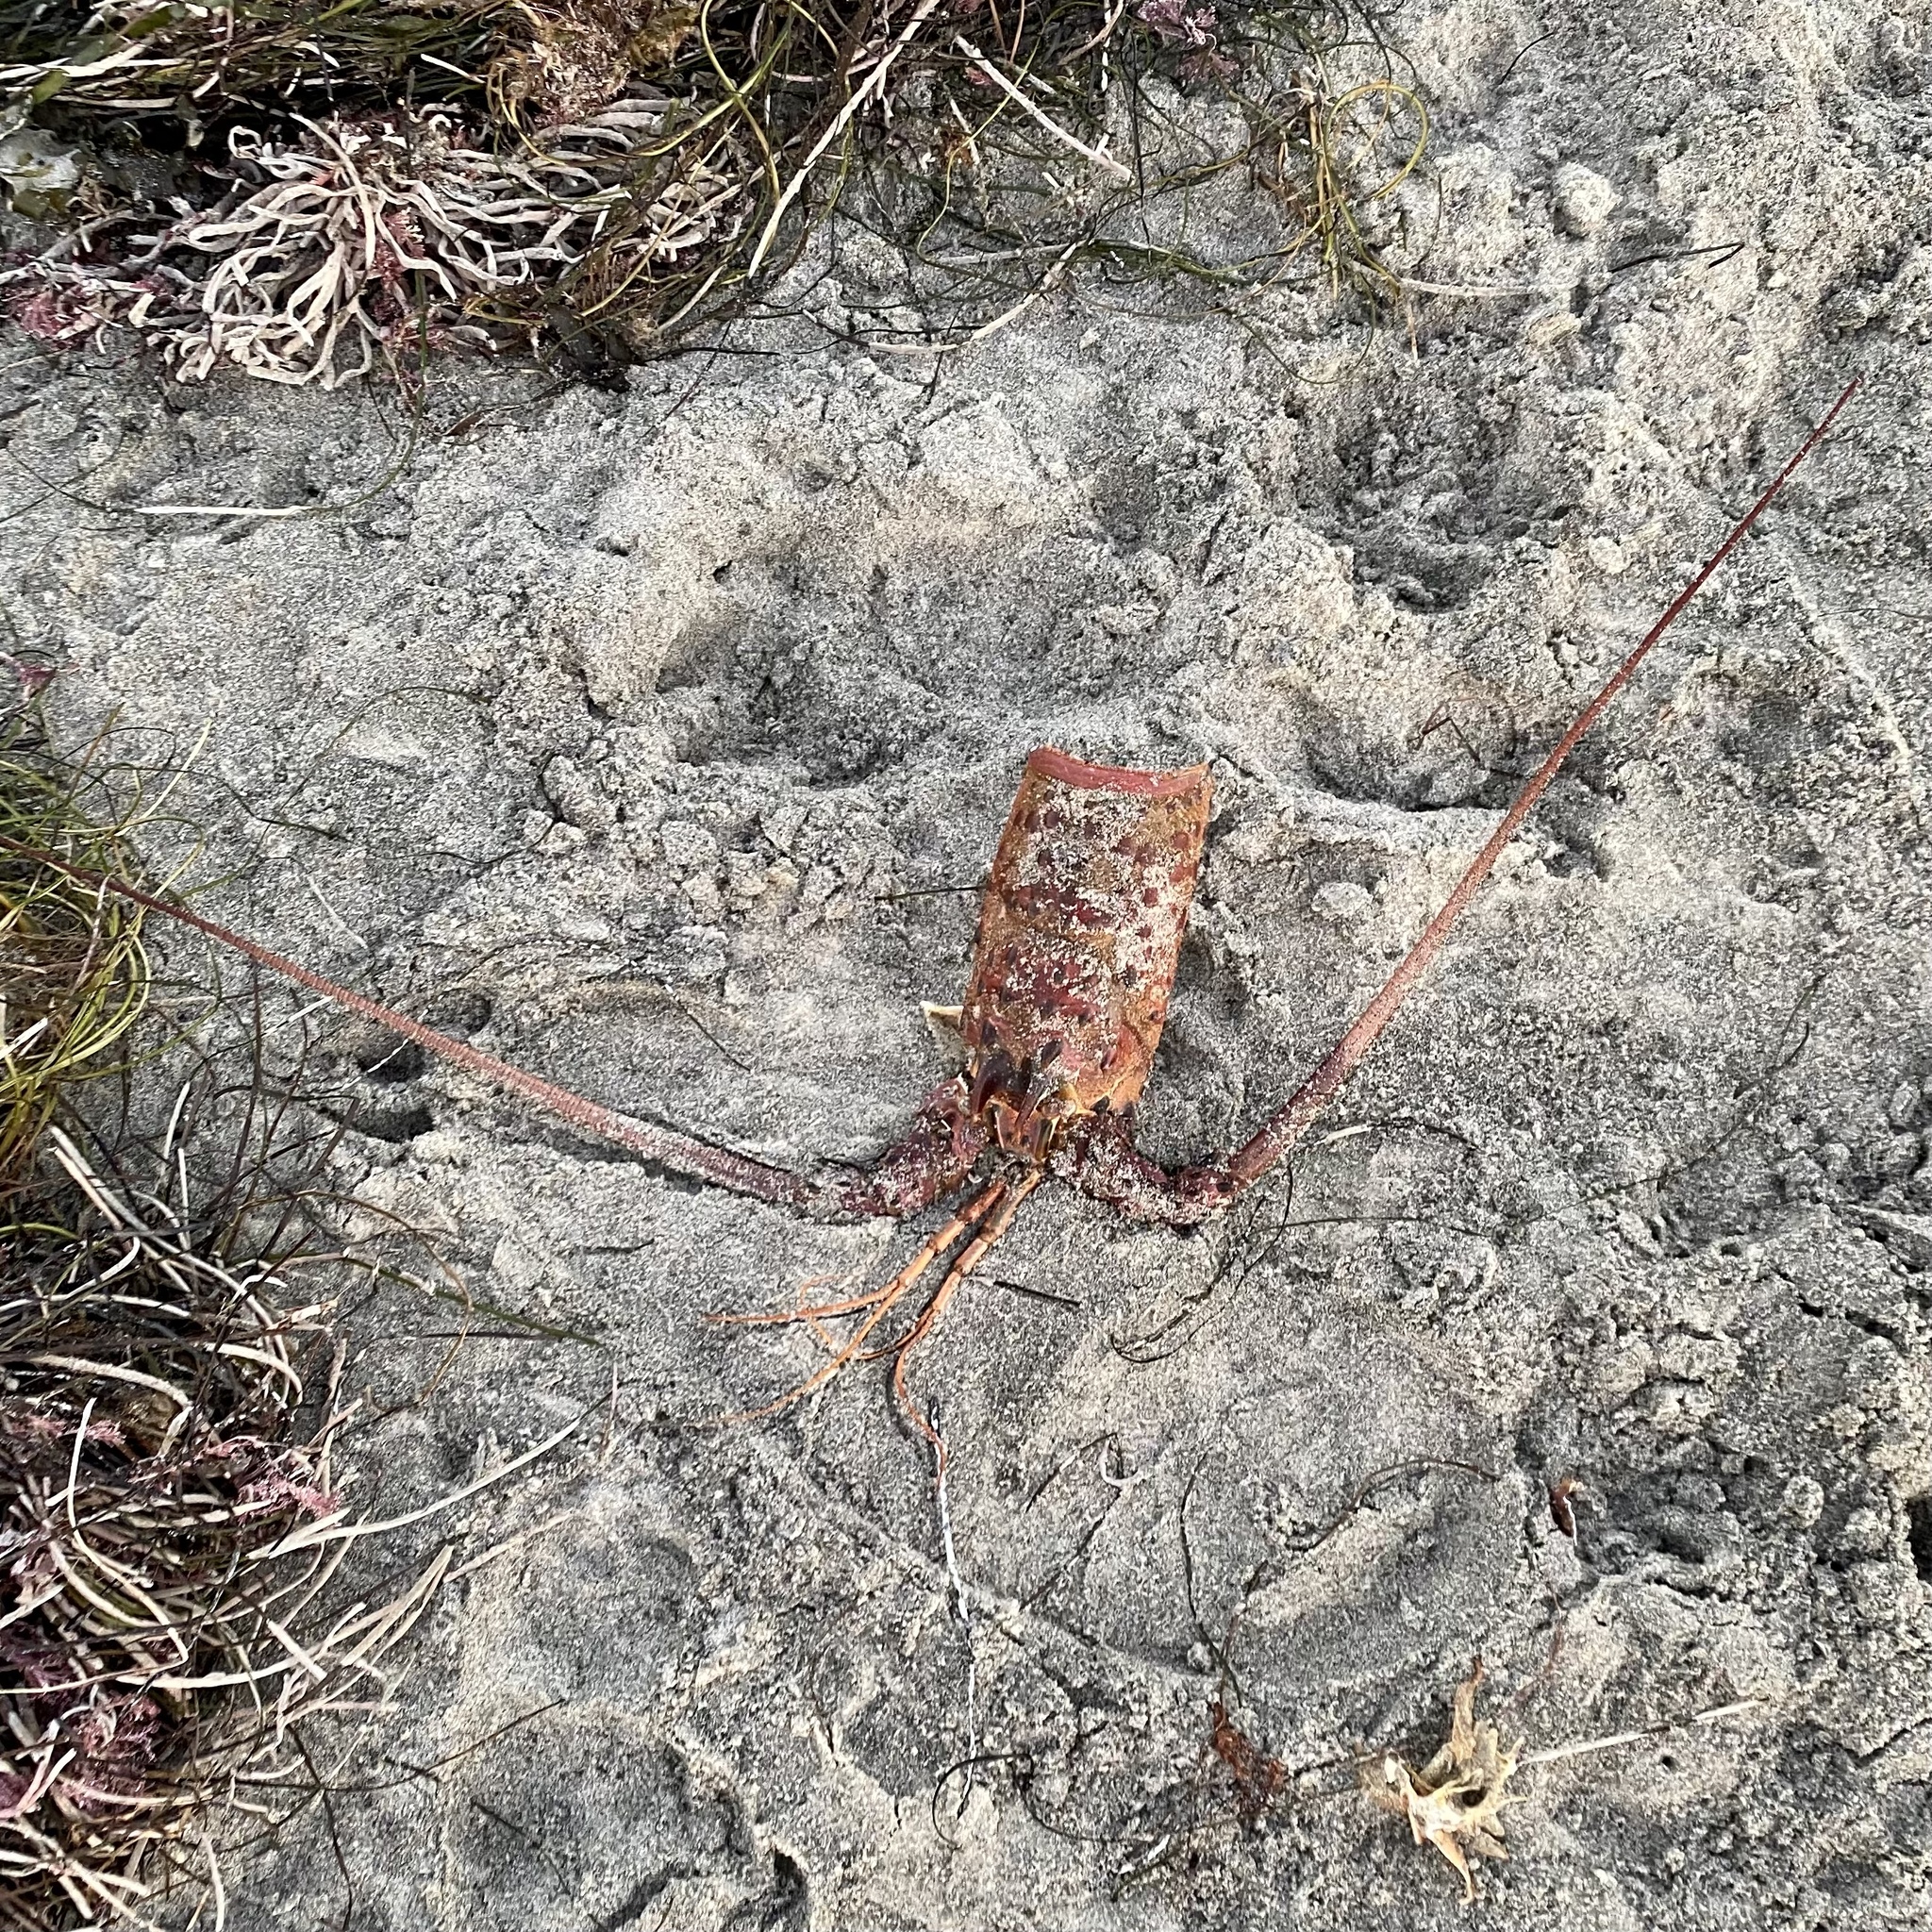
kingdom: Animalia
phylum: Arthropoda
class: Malacostraca
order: Decapoda
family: Palinuridae
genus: Panulirus
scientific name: Panulirus interruptus
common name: California spiny lobster
